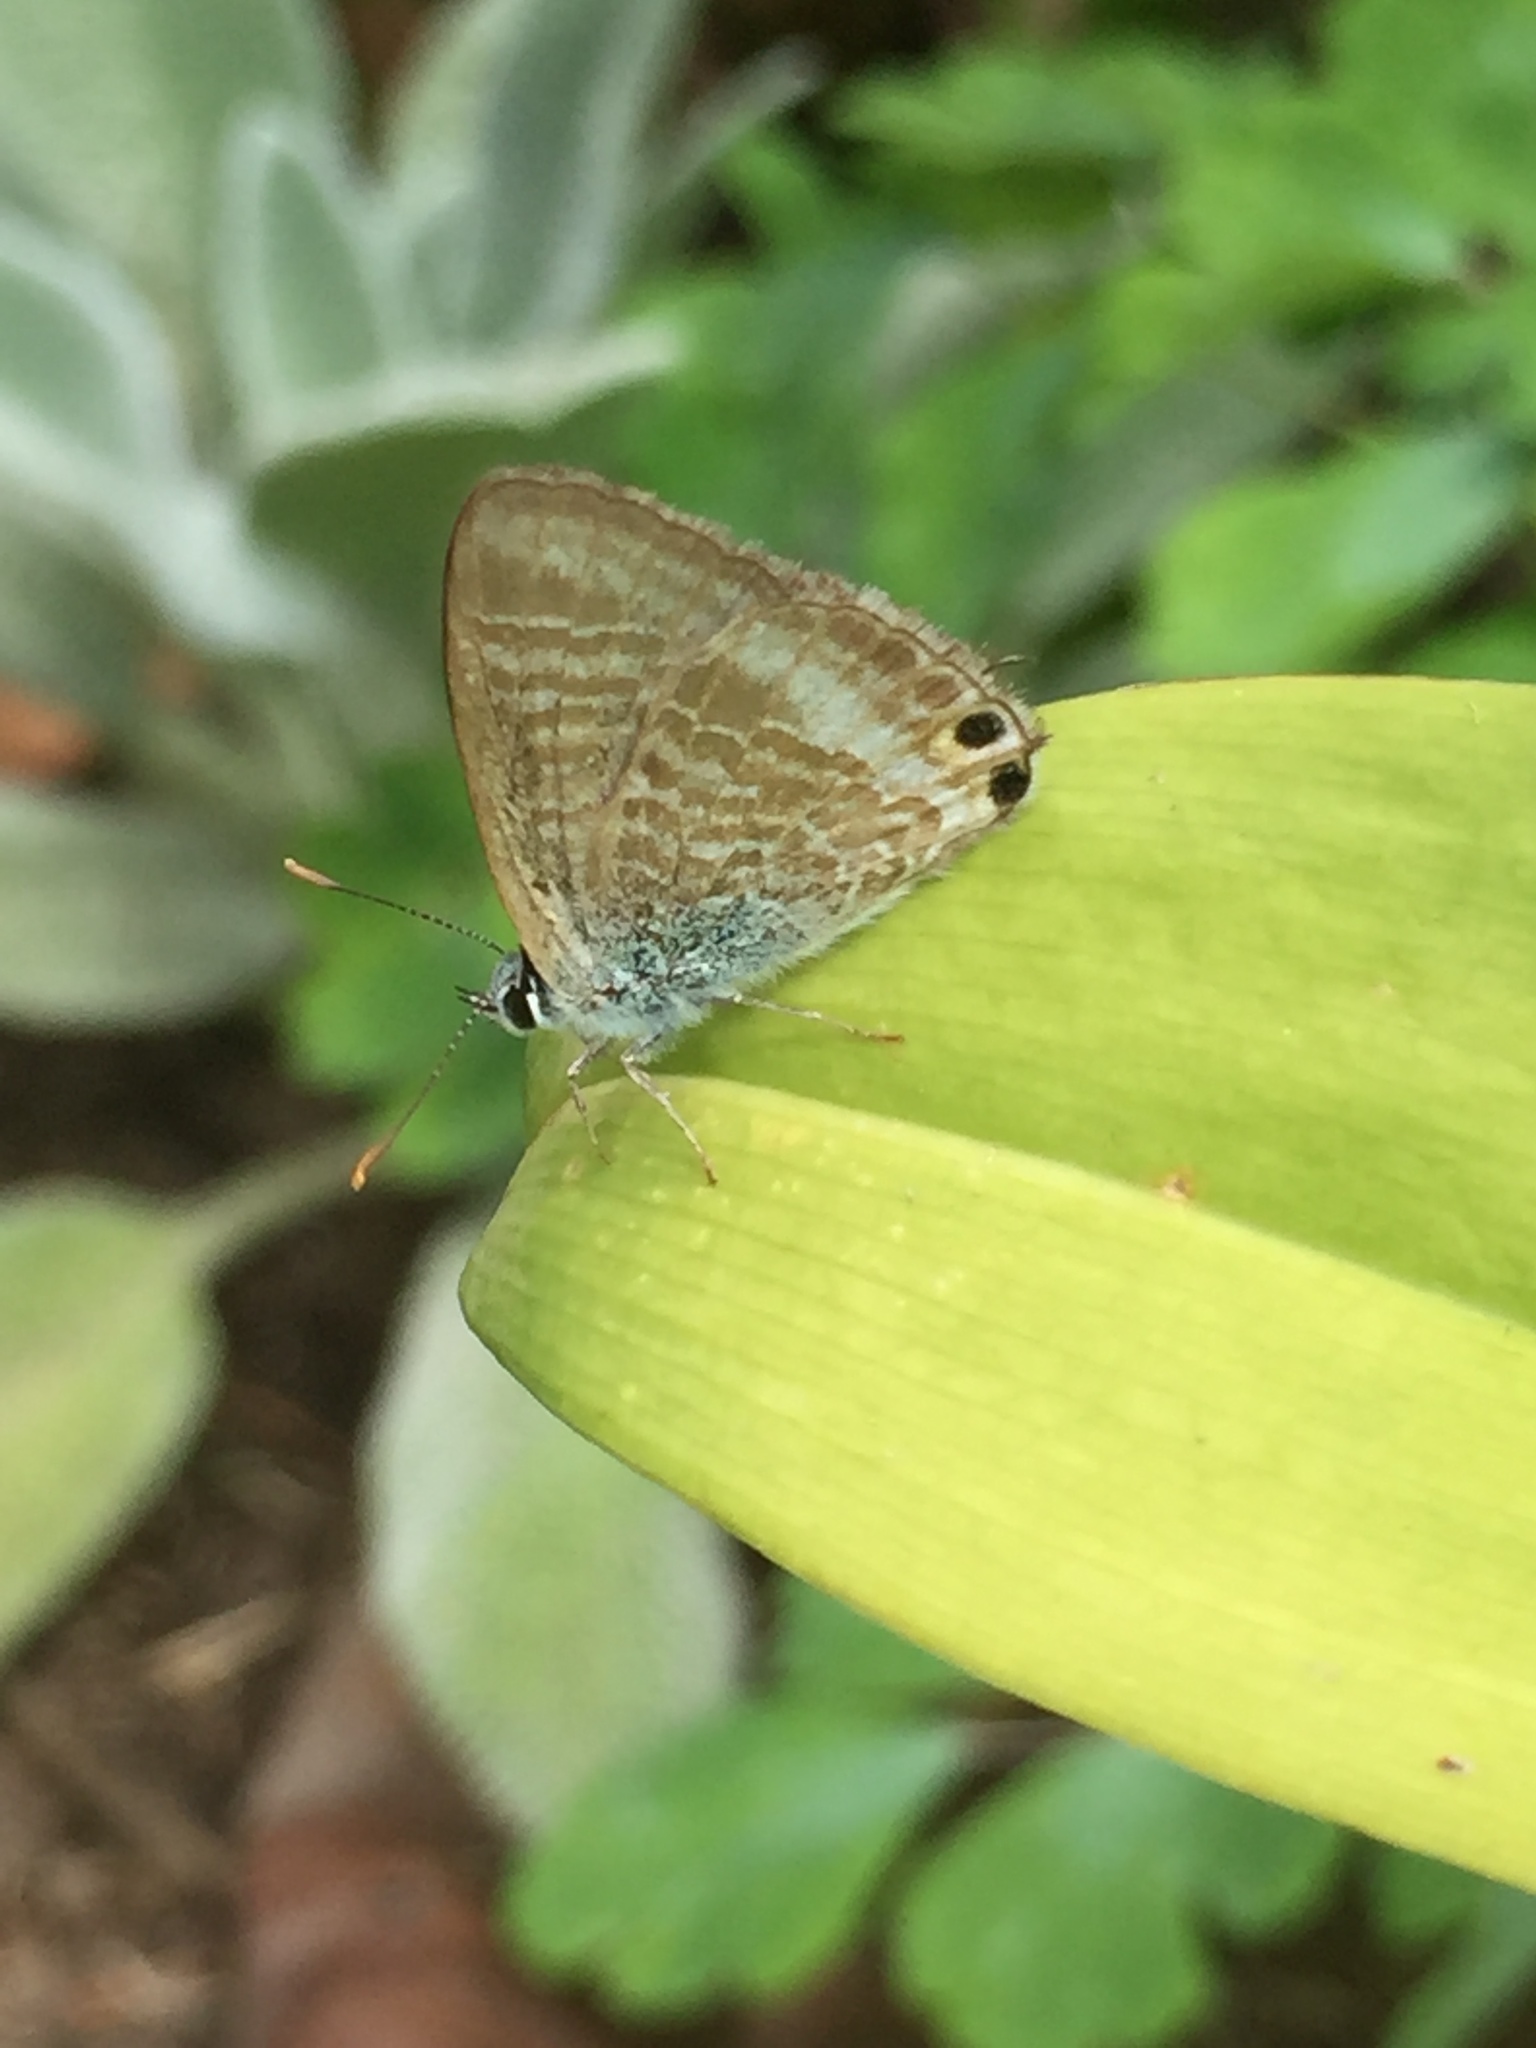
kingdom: Animalia
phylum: Arthropoda
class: Insecta
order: Lepidoptera
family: Lycaenidae
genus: Lampides
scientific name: Lampides boeticus
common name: Long-tailed blue
